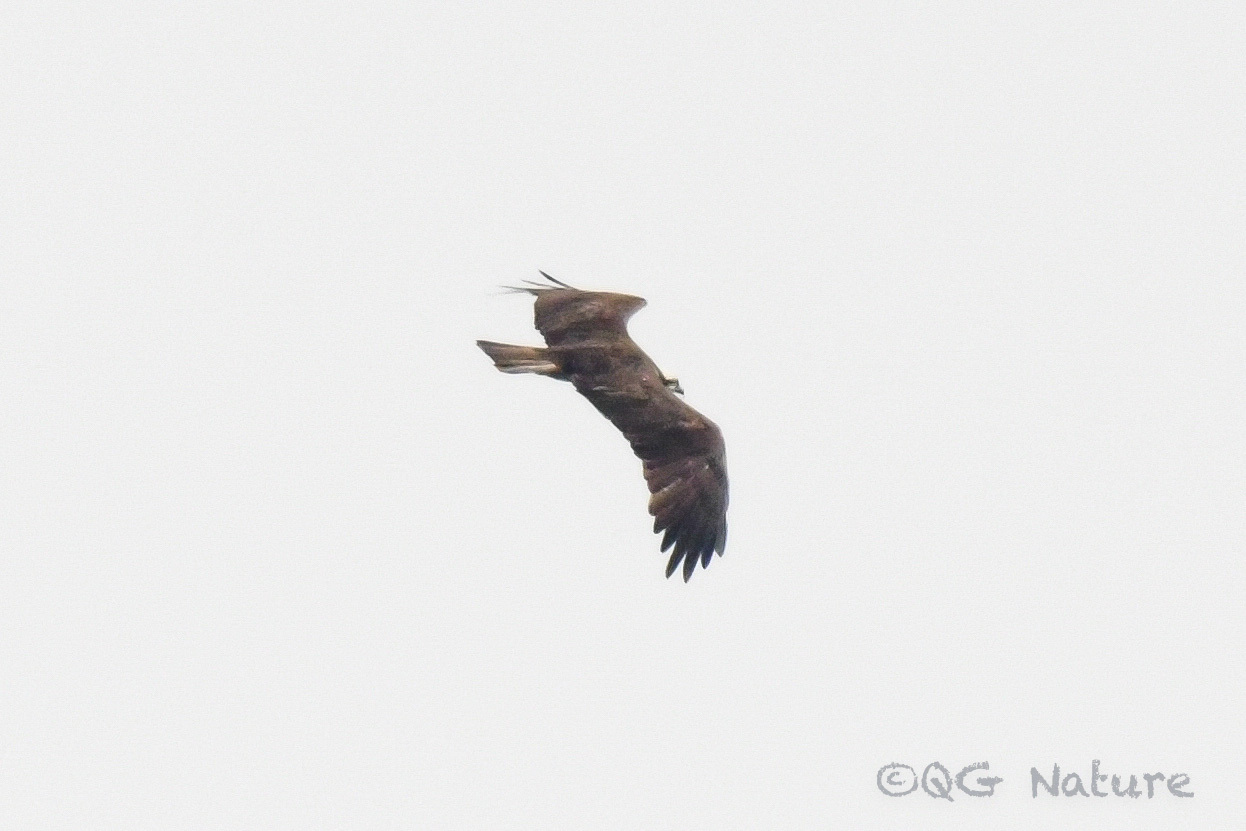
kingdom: Animalia
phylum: Chordata
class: Aves
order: Accipitriformes
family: Pandionidae
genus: Pandion
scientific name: Pandion haliaetus
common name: Osprey
